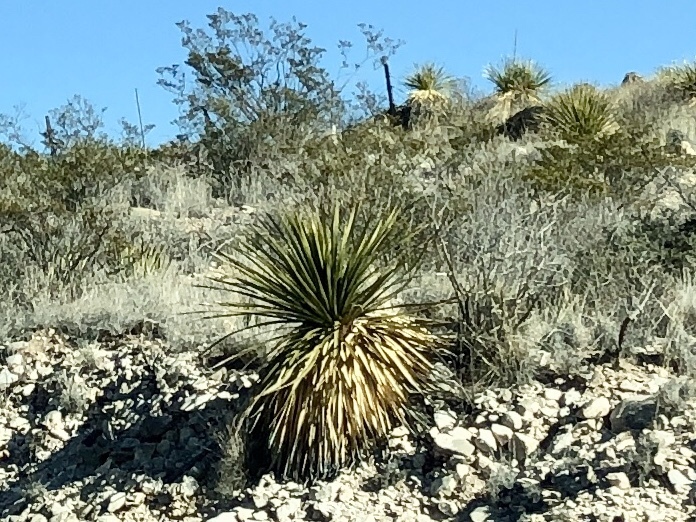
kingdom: Plantae
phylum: Tracheophyta
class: Liliopsida
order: Asparagales
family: Asparagaceae
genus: Dasylirion
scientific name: Dasylirion wheeleri
